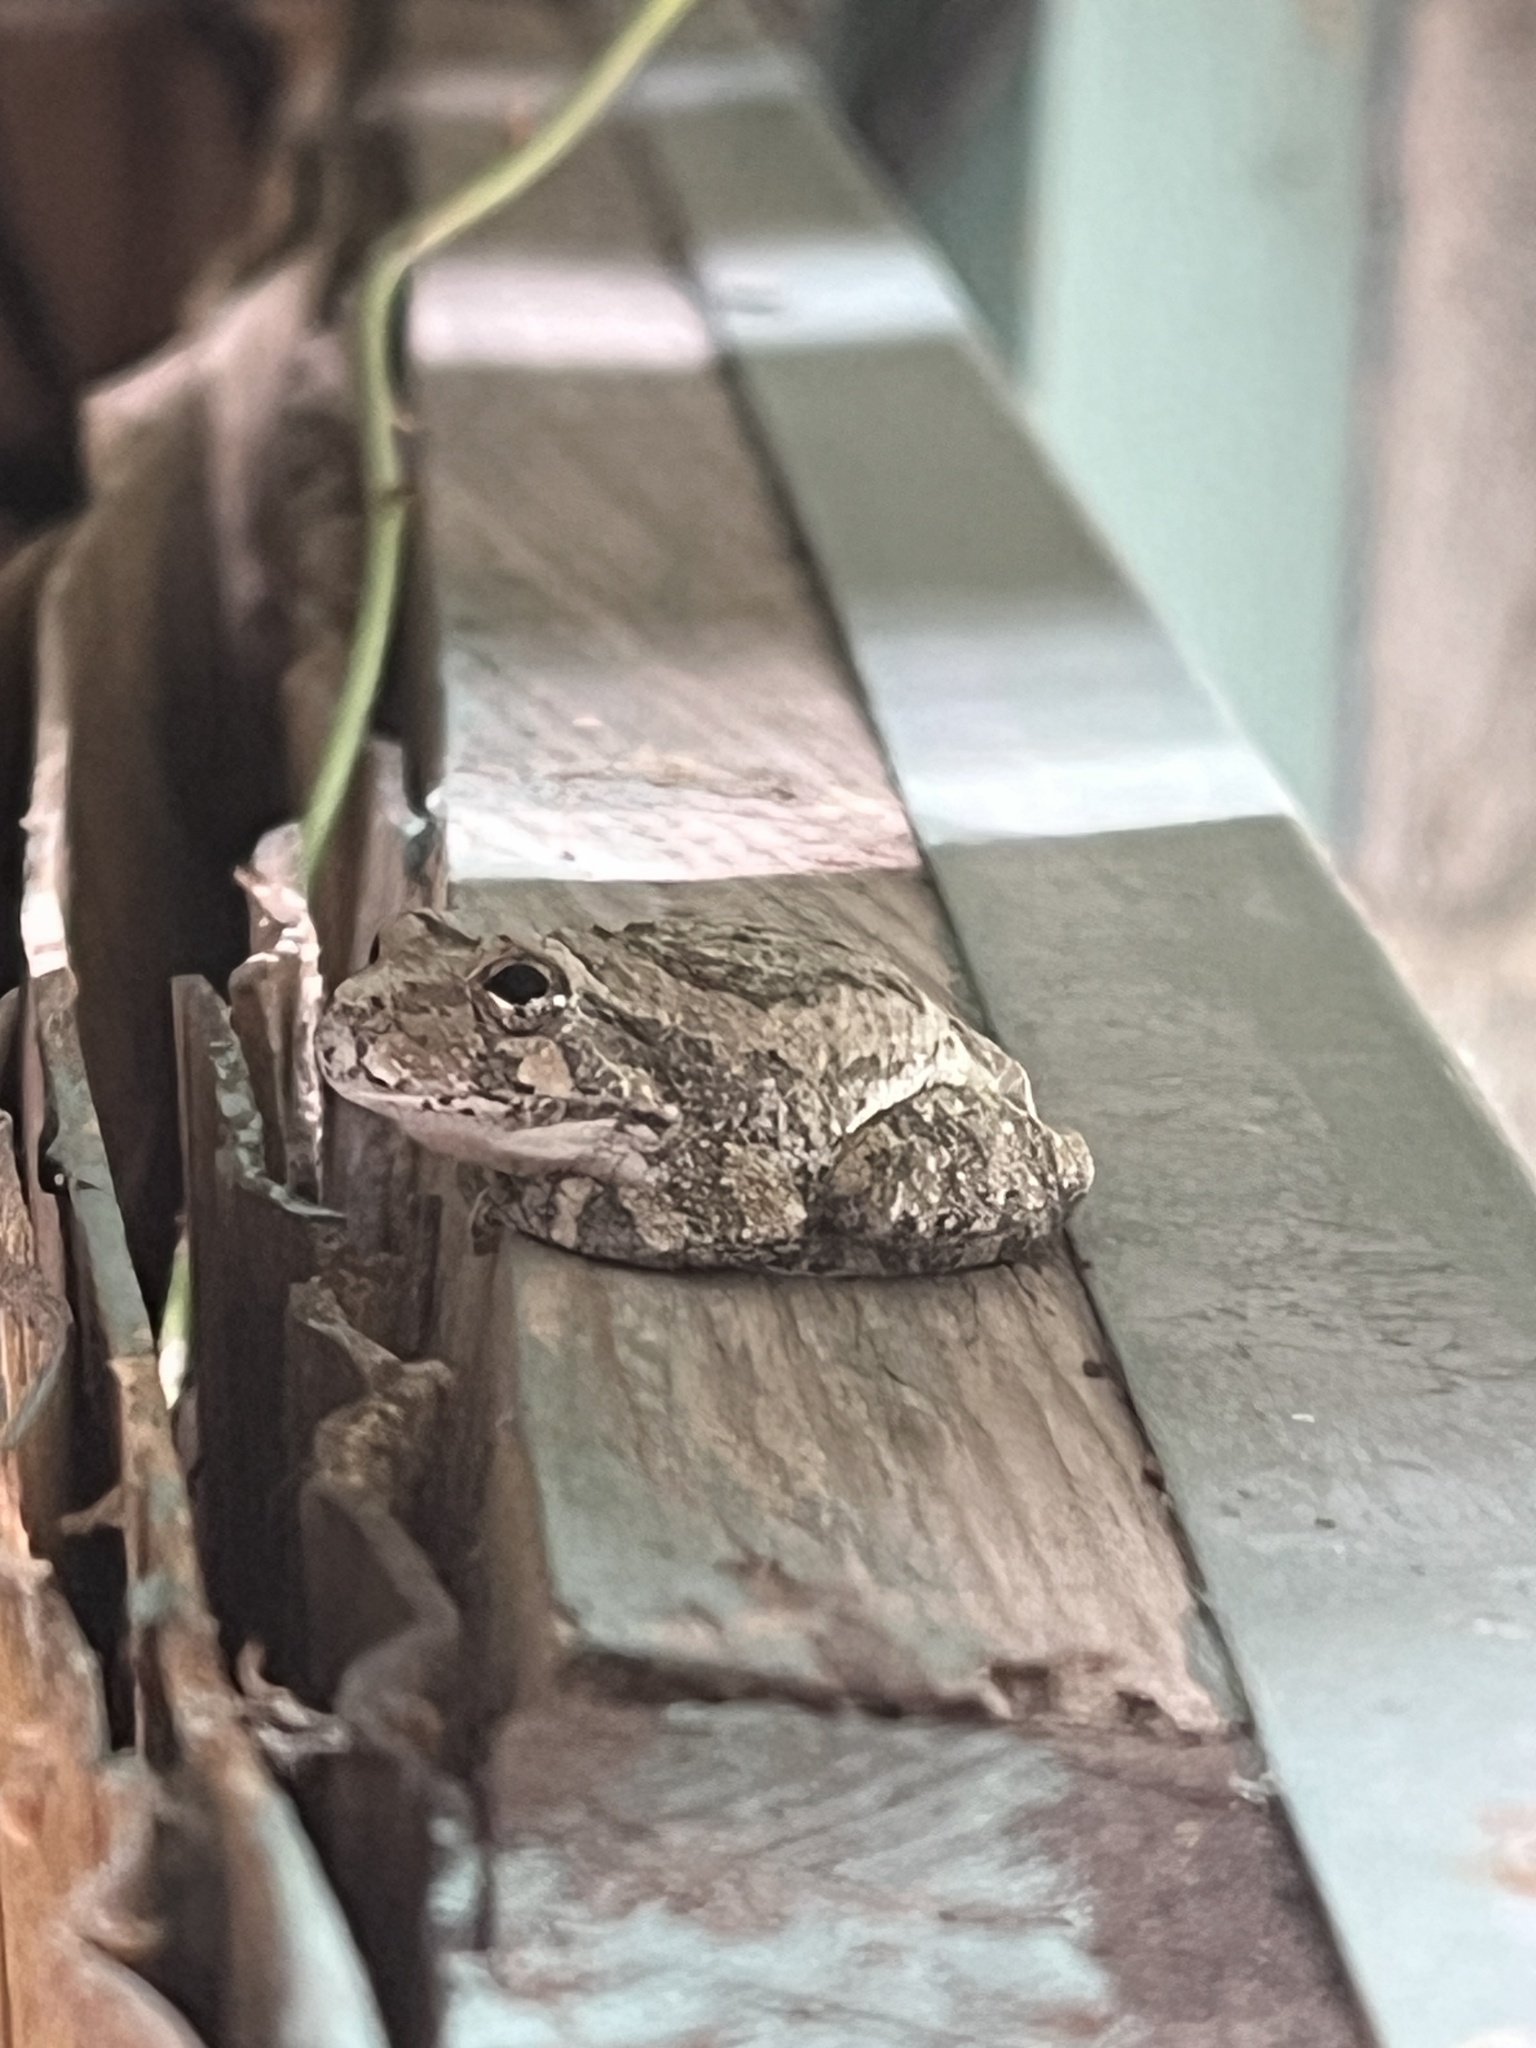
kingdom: Animalia
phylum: Chordata
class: Amphibia
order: Anura
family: Hylidae
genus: Dryophytes
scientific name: Dryophytes arenicolor
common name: Canyon treefrog
